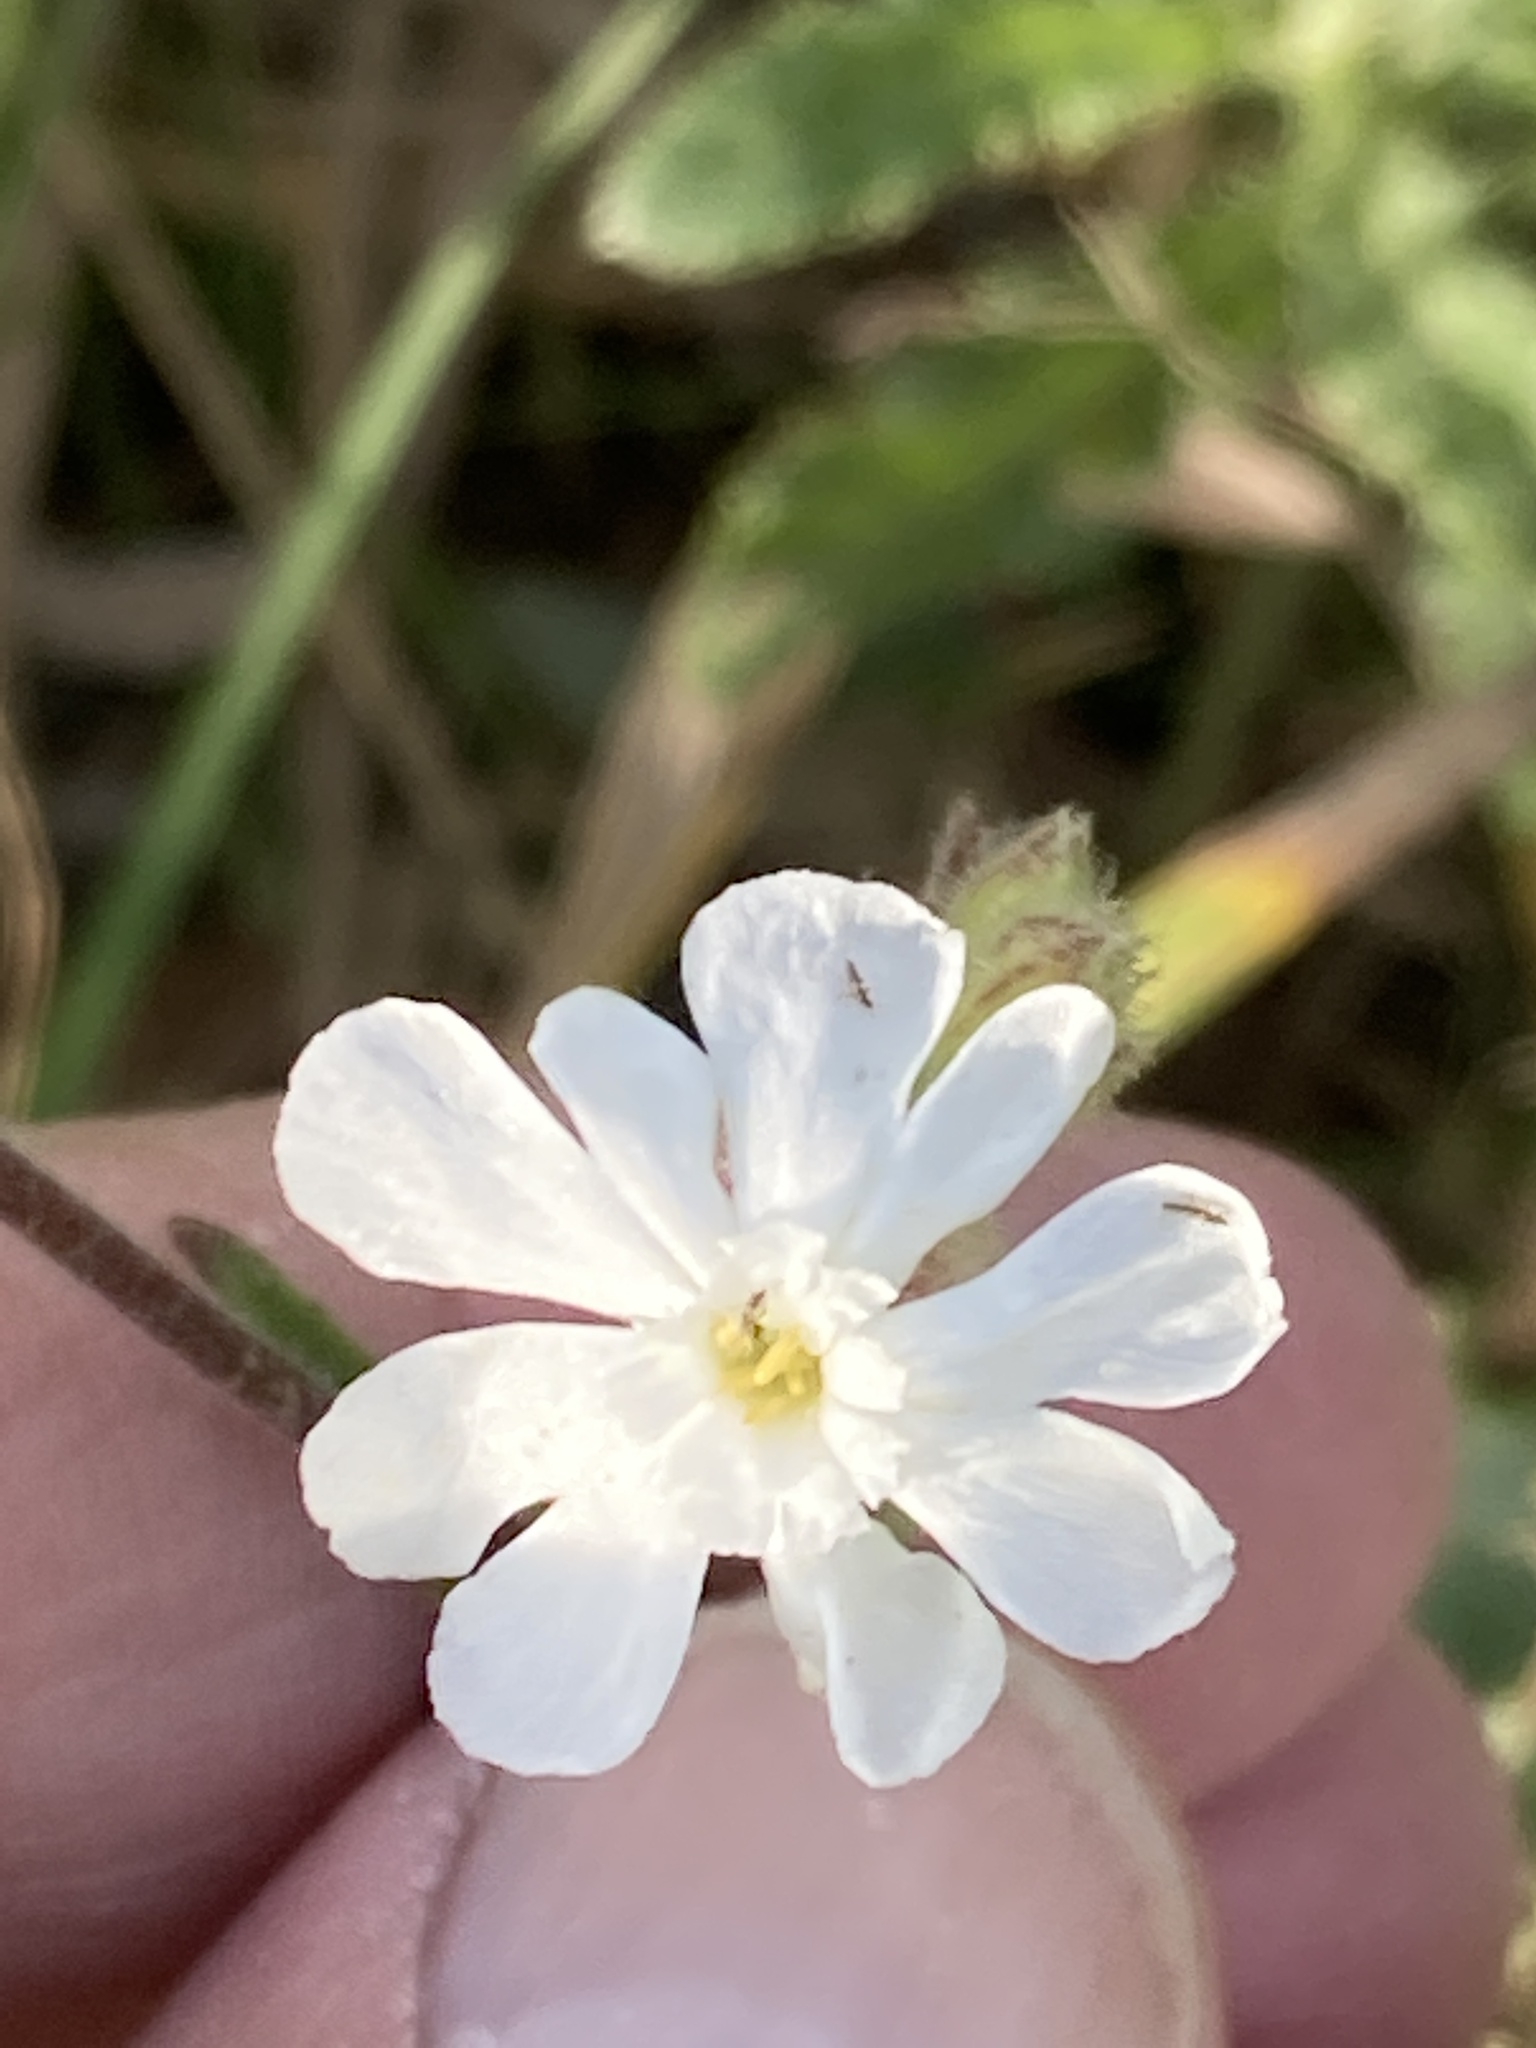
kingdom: Plantae
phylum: Tracheophyta
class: Magnoliopsida
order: Caryophyllales
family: Caryophyllaceae
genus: Silene
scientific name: Silene latifolia
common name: White campion
